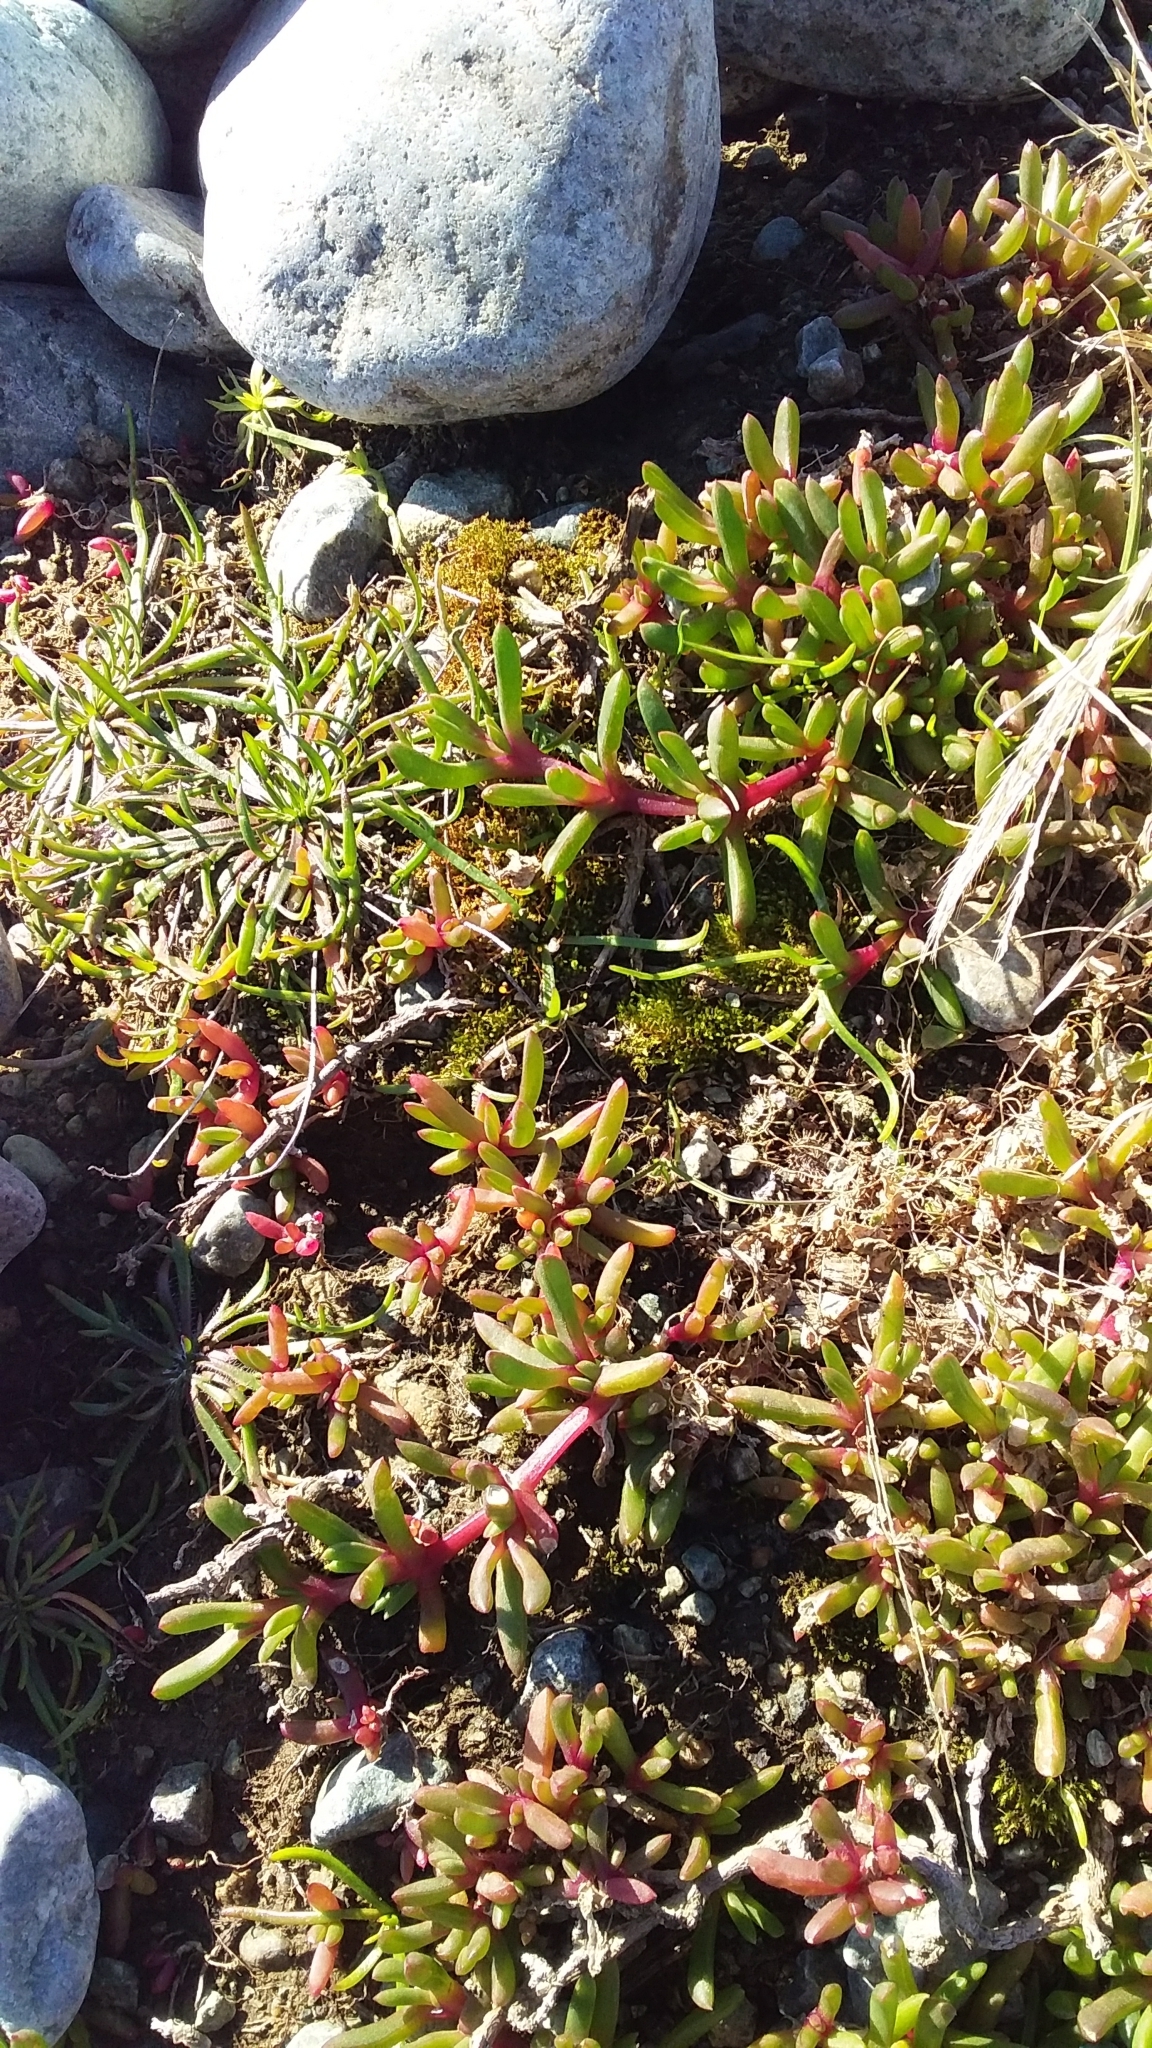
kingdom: Plantae
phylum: Tracheophyta
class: Magnoliopsida
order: Caryophyllales
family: Aizoaceae
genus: Disphyma
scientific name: Disphyma australe
